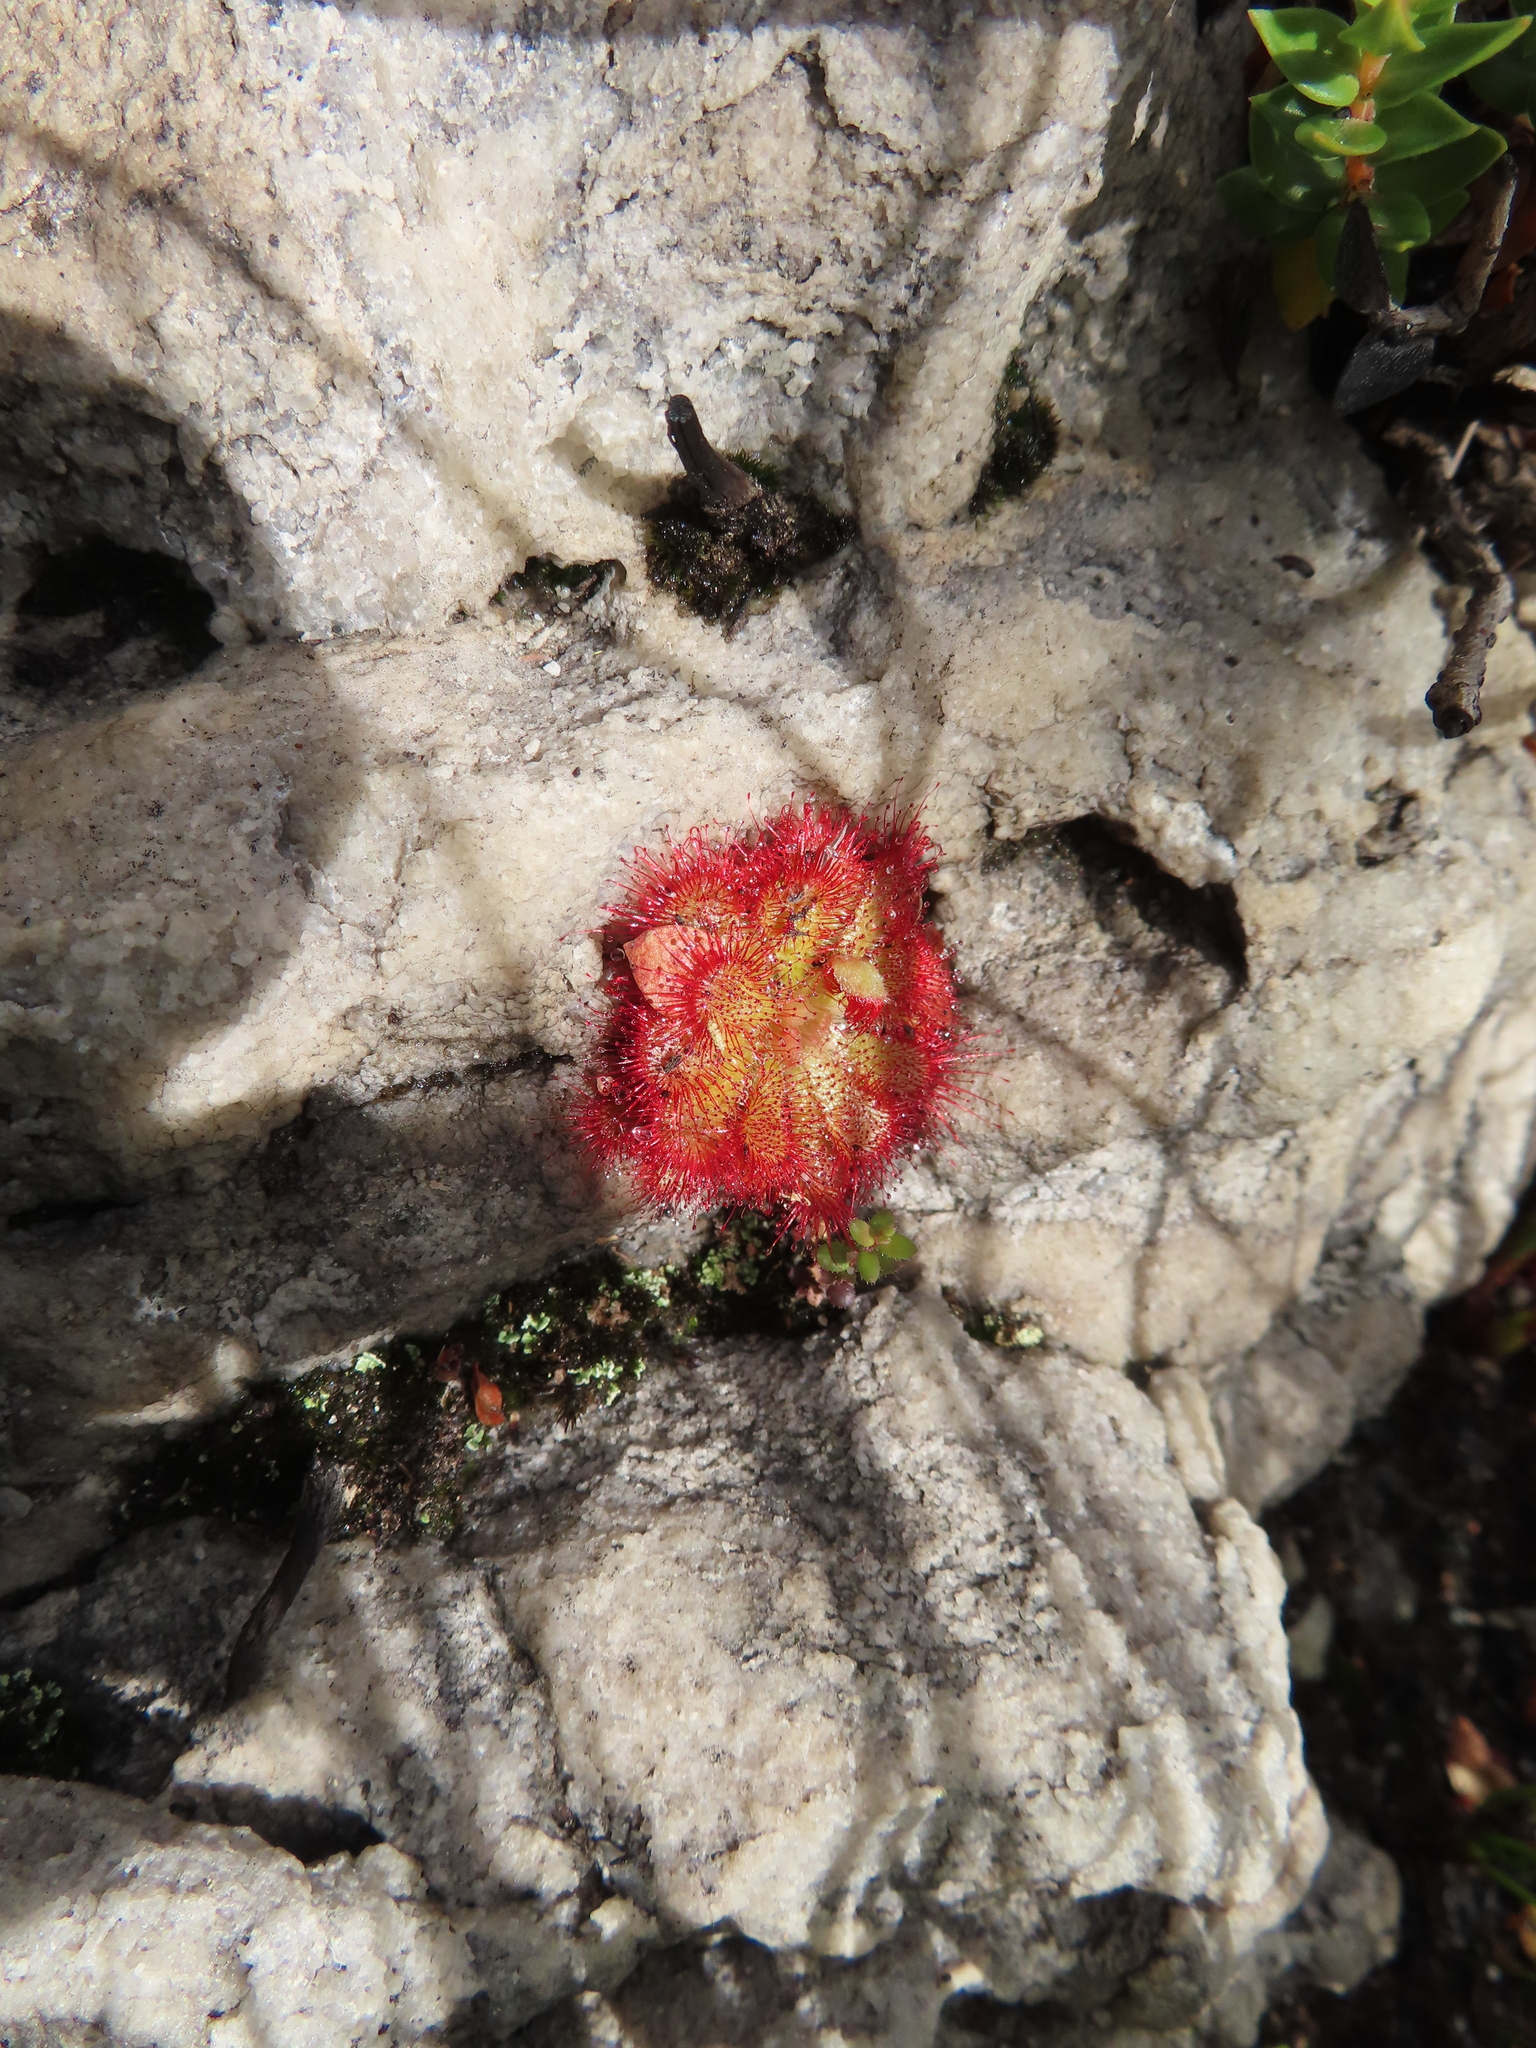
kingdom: Plantae
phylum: Tracheophyta
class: Magnoliopsida
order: Caryophyllales
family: Droseraceae
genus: Drosera
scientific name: Drosera aliciae
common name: Alice sundew
